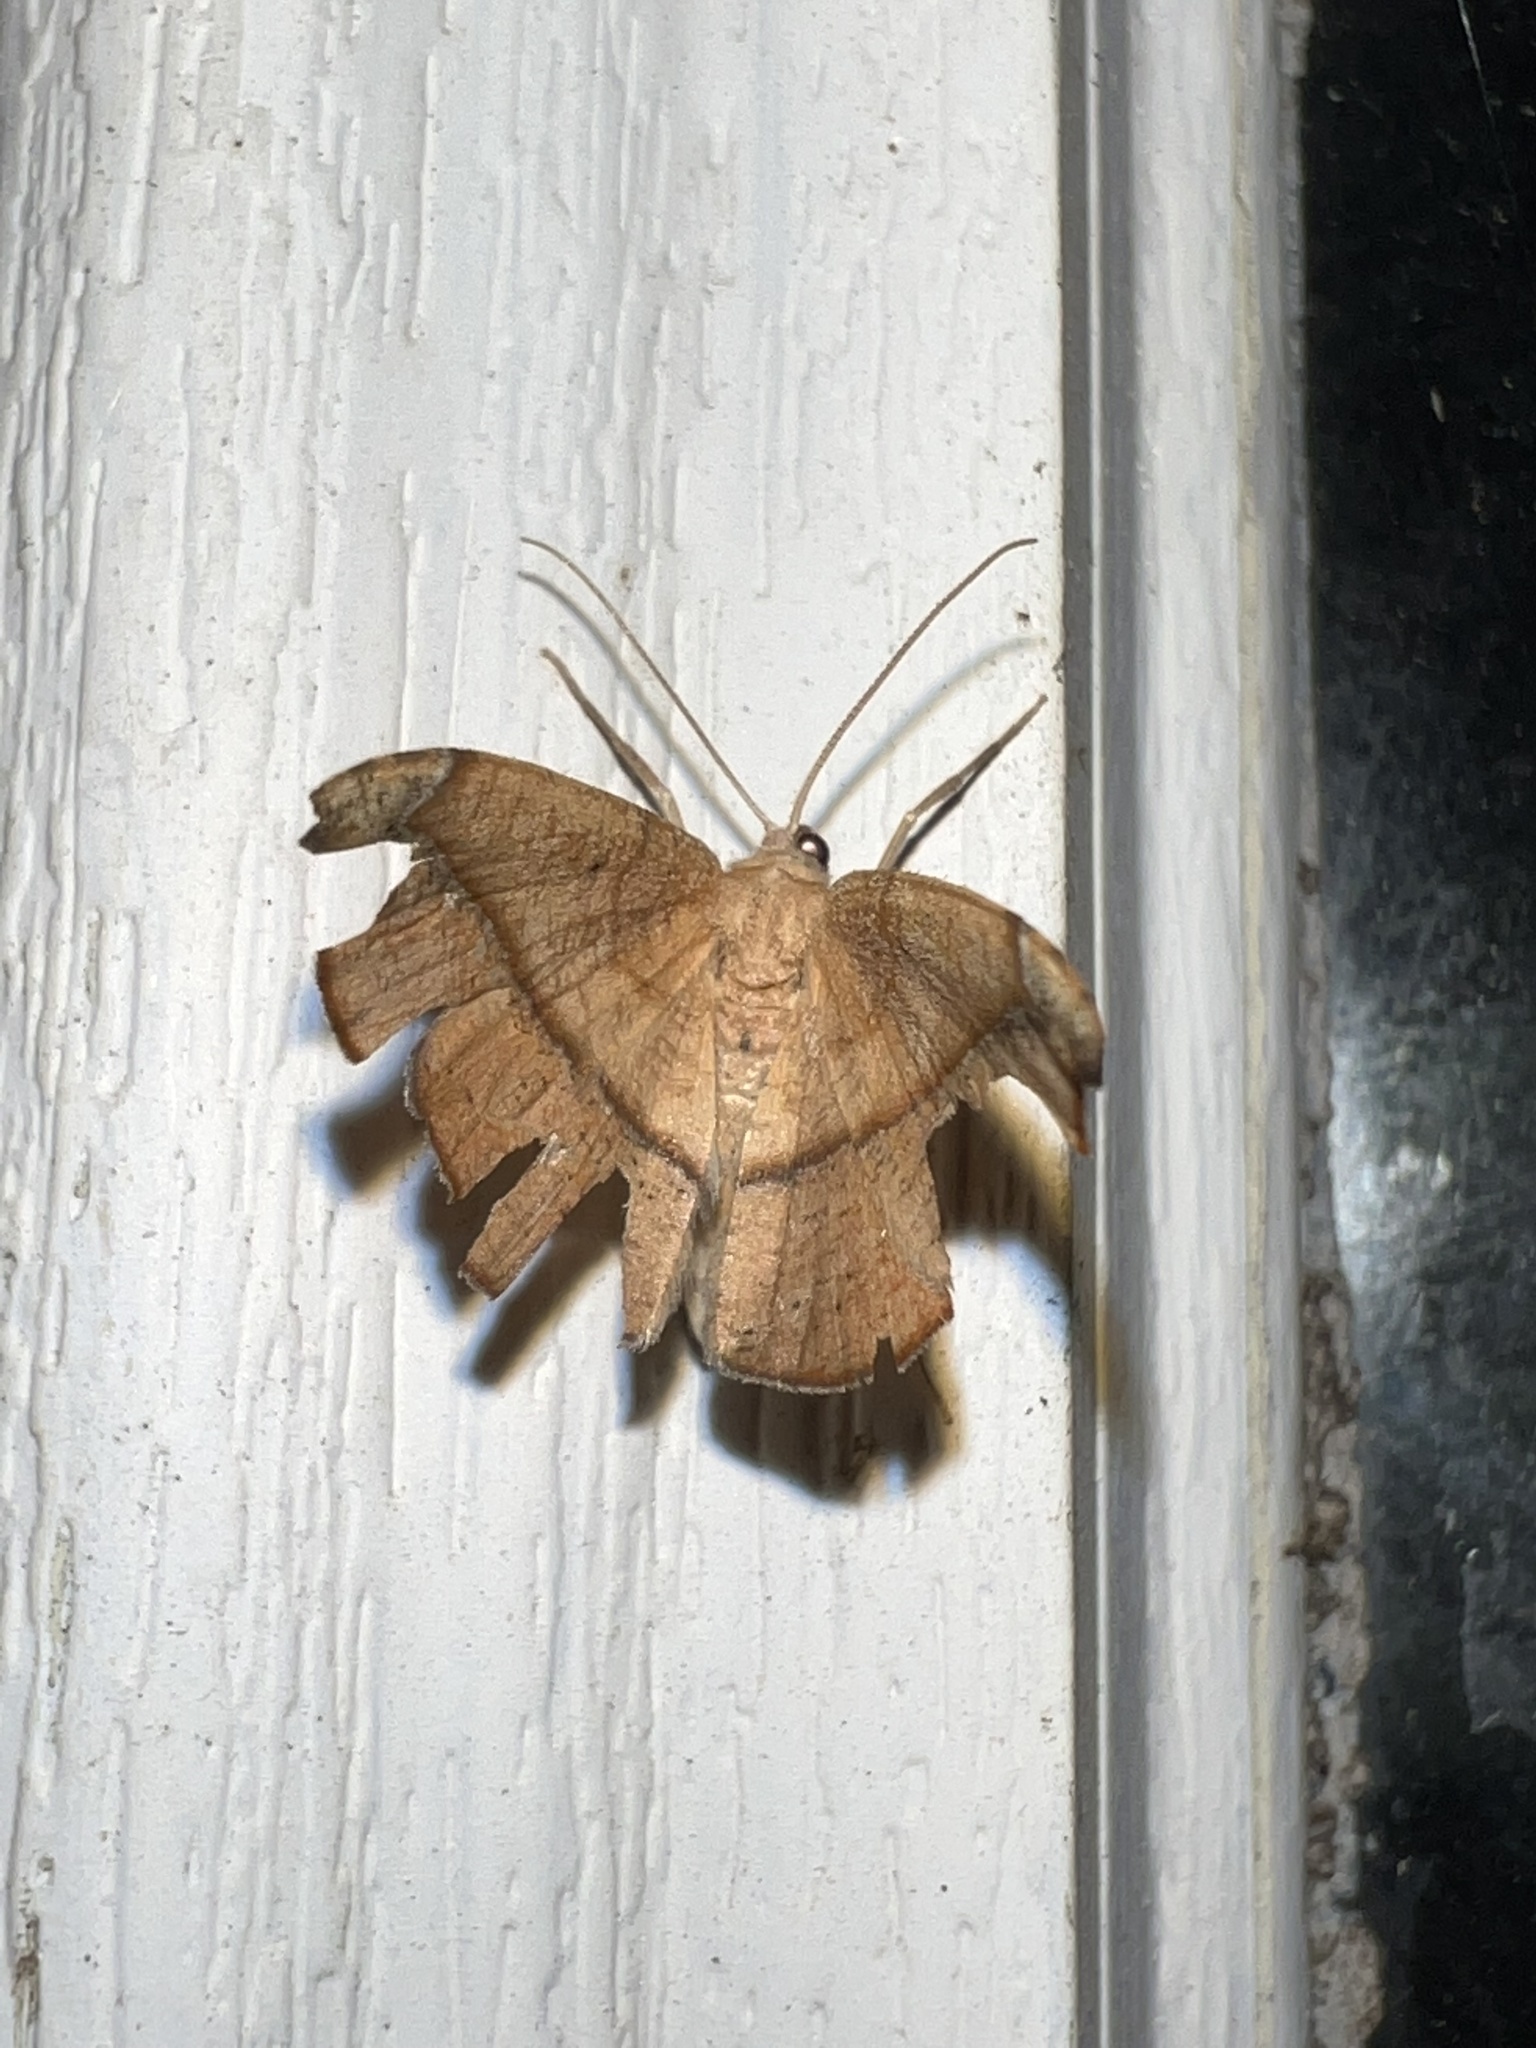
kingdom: Animalia
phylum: Arthropoda
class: Insecta
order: Lepidoptera
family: Geometridae
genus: Patalene
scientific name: Patalene olyzonaria
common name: Juniper geometer moth
